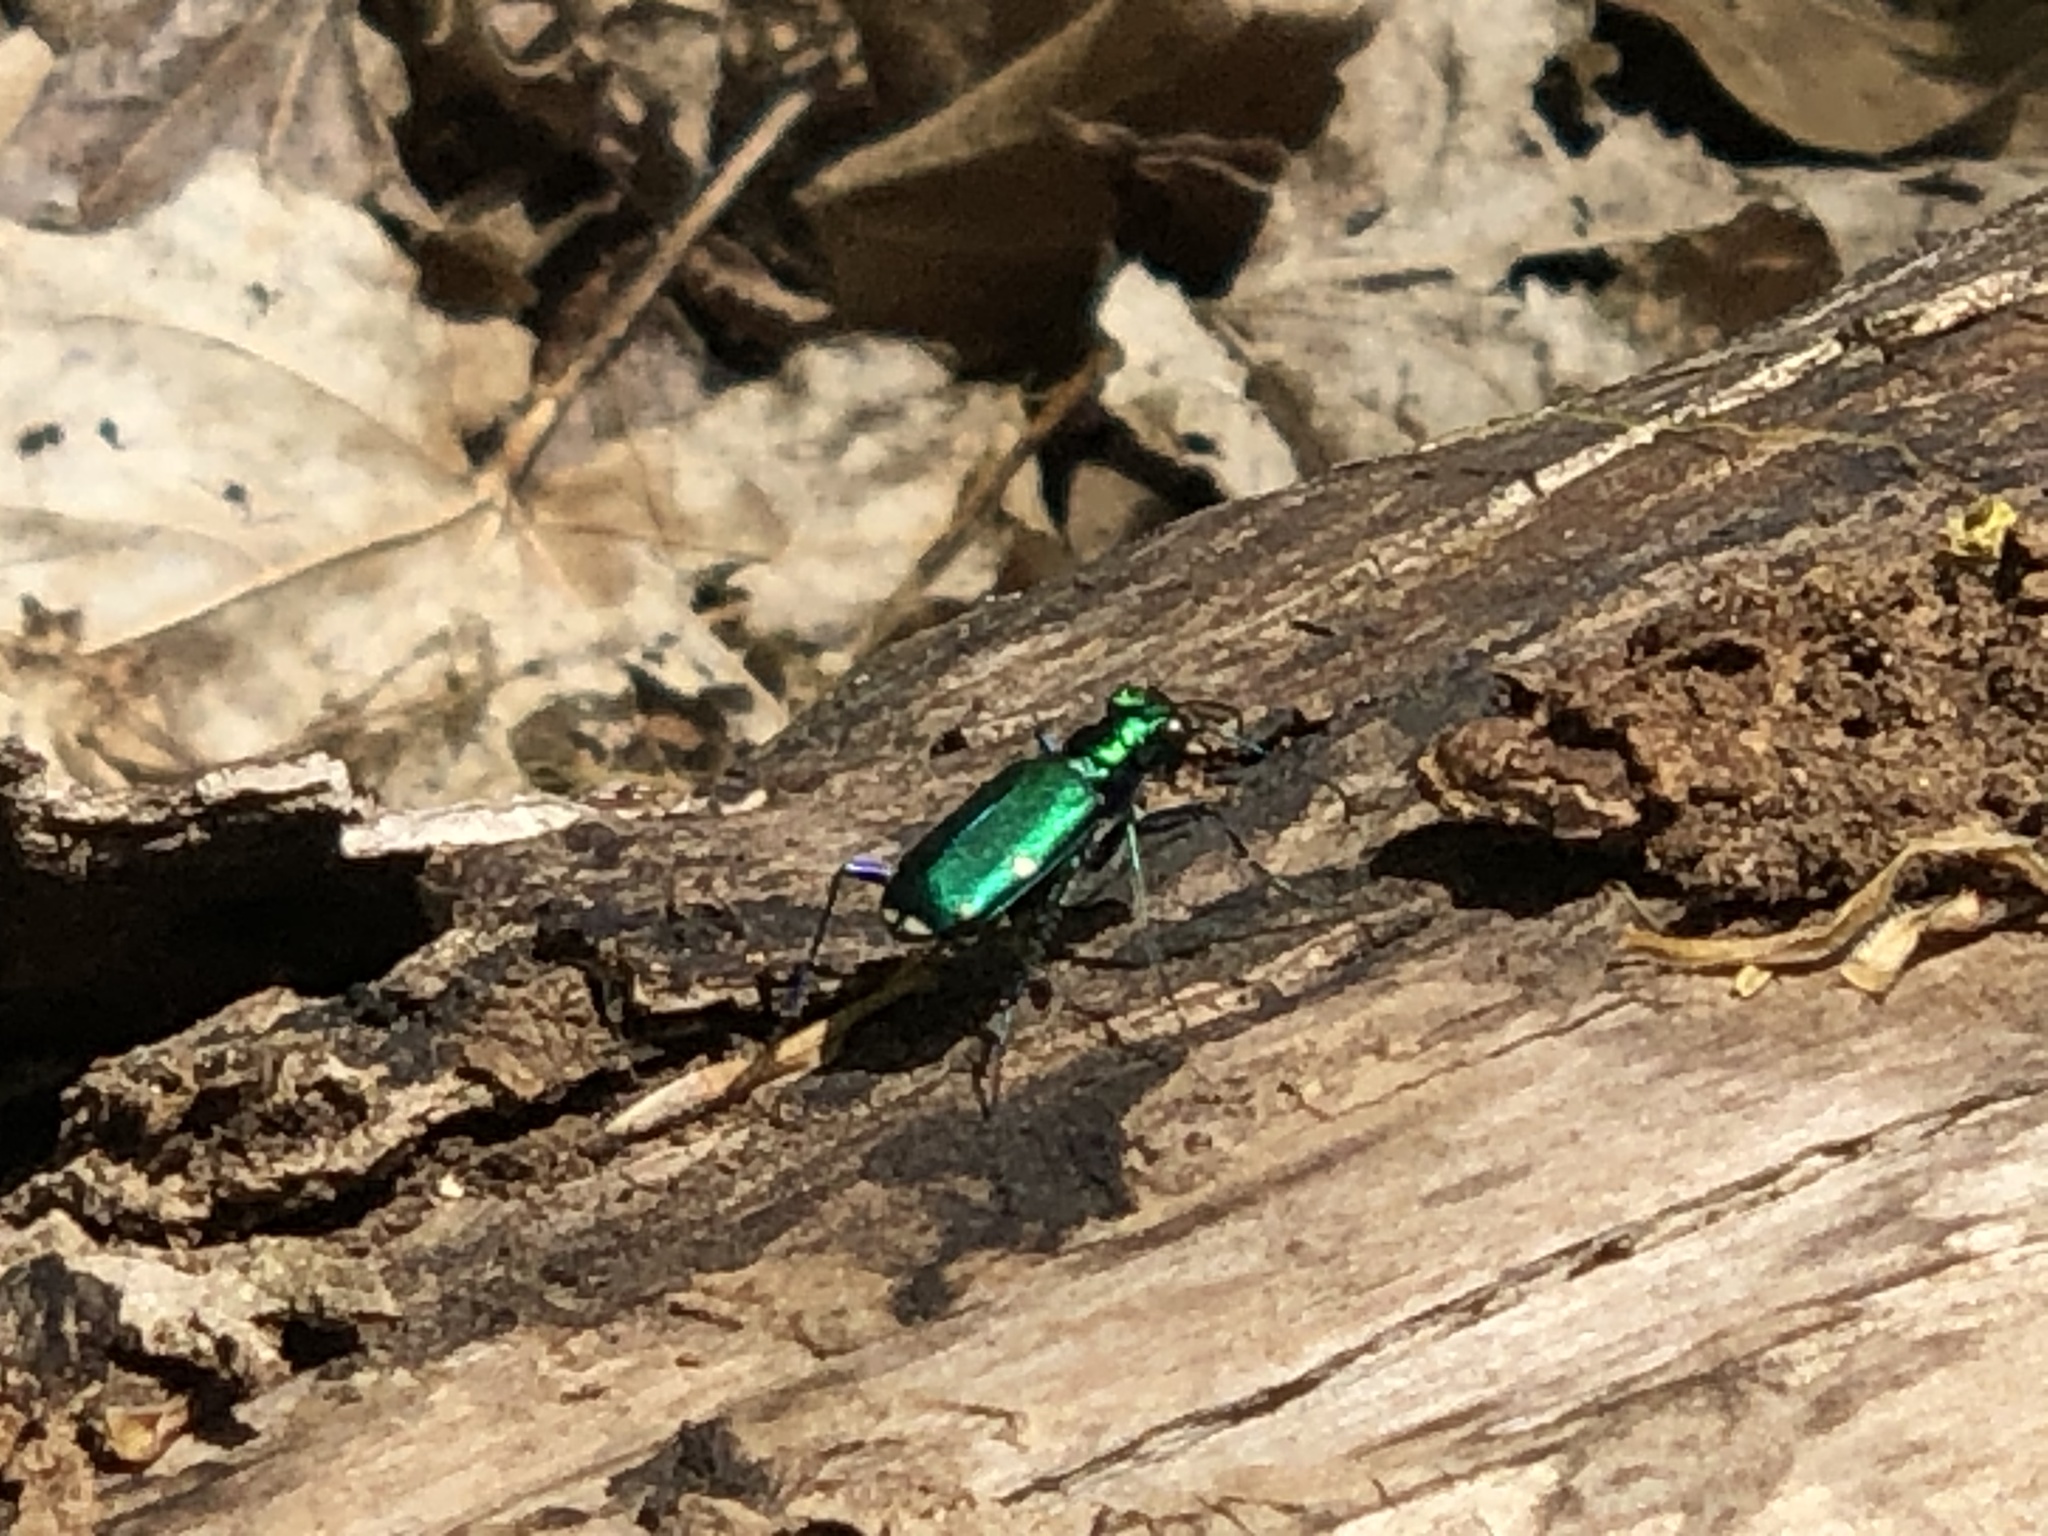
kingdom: Animalia
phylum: Arthropoda
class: Insecta
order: Coleoptera
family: Carabidae
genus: Cicindela
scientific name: Cicindela sexguttata
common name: Six-spotted tiger beetle
